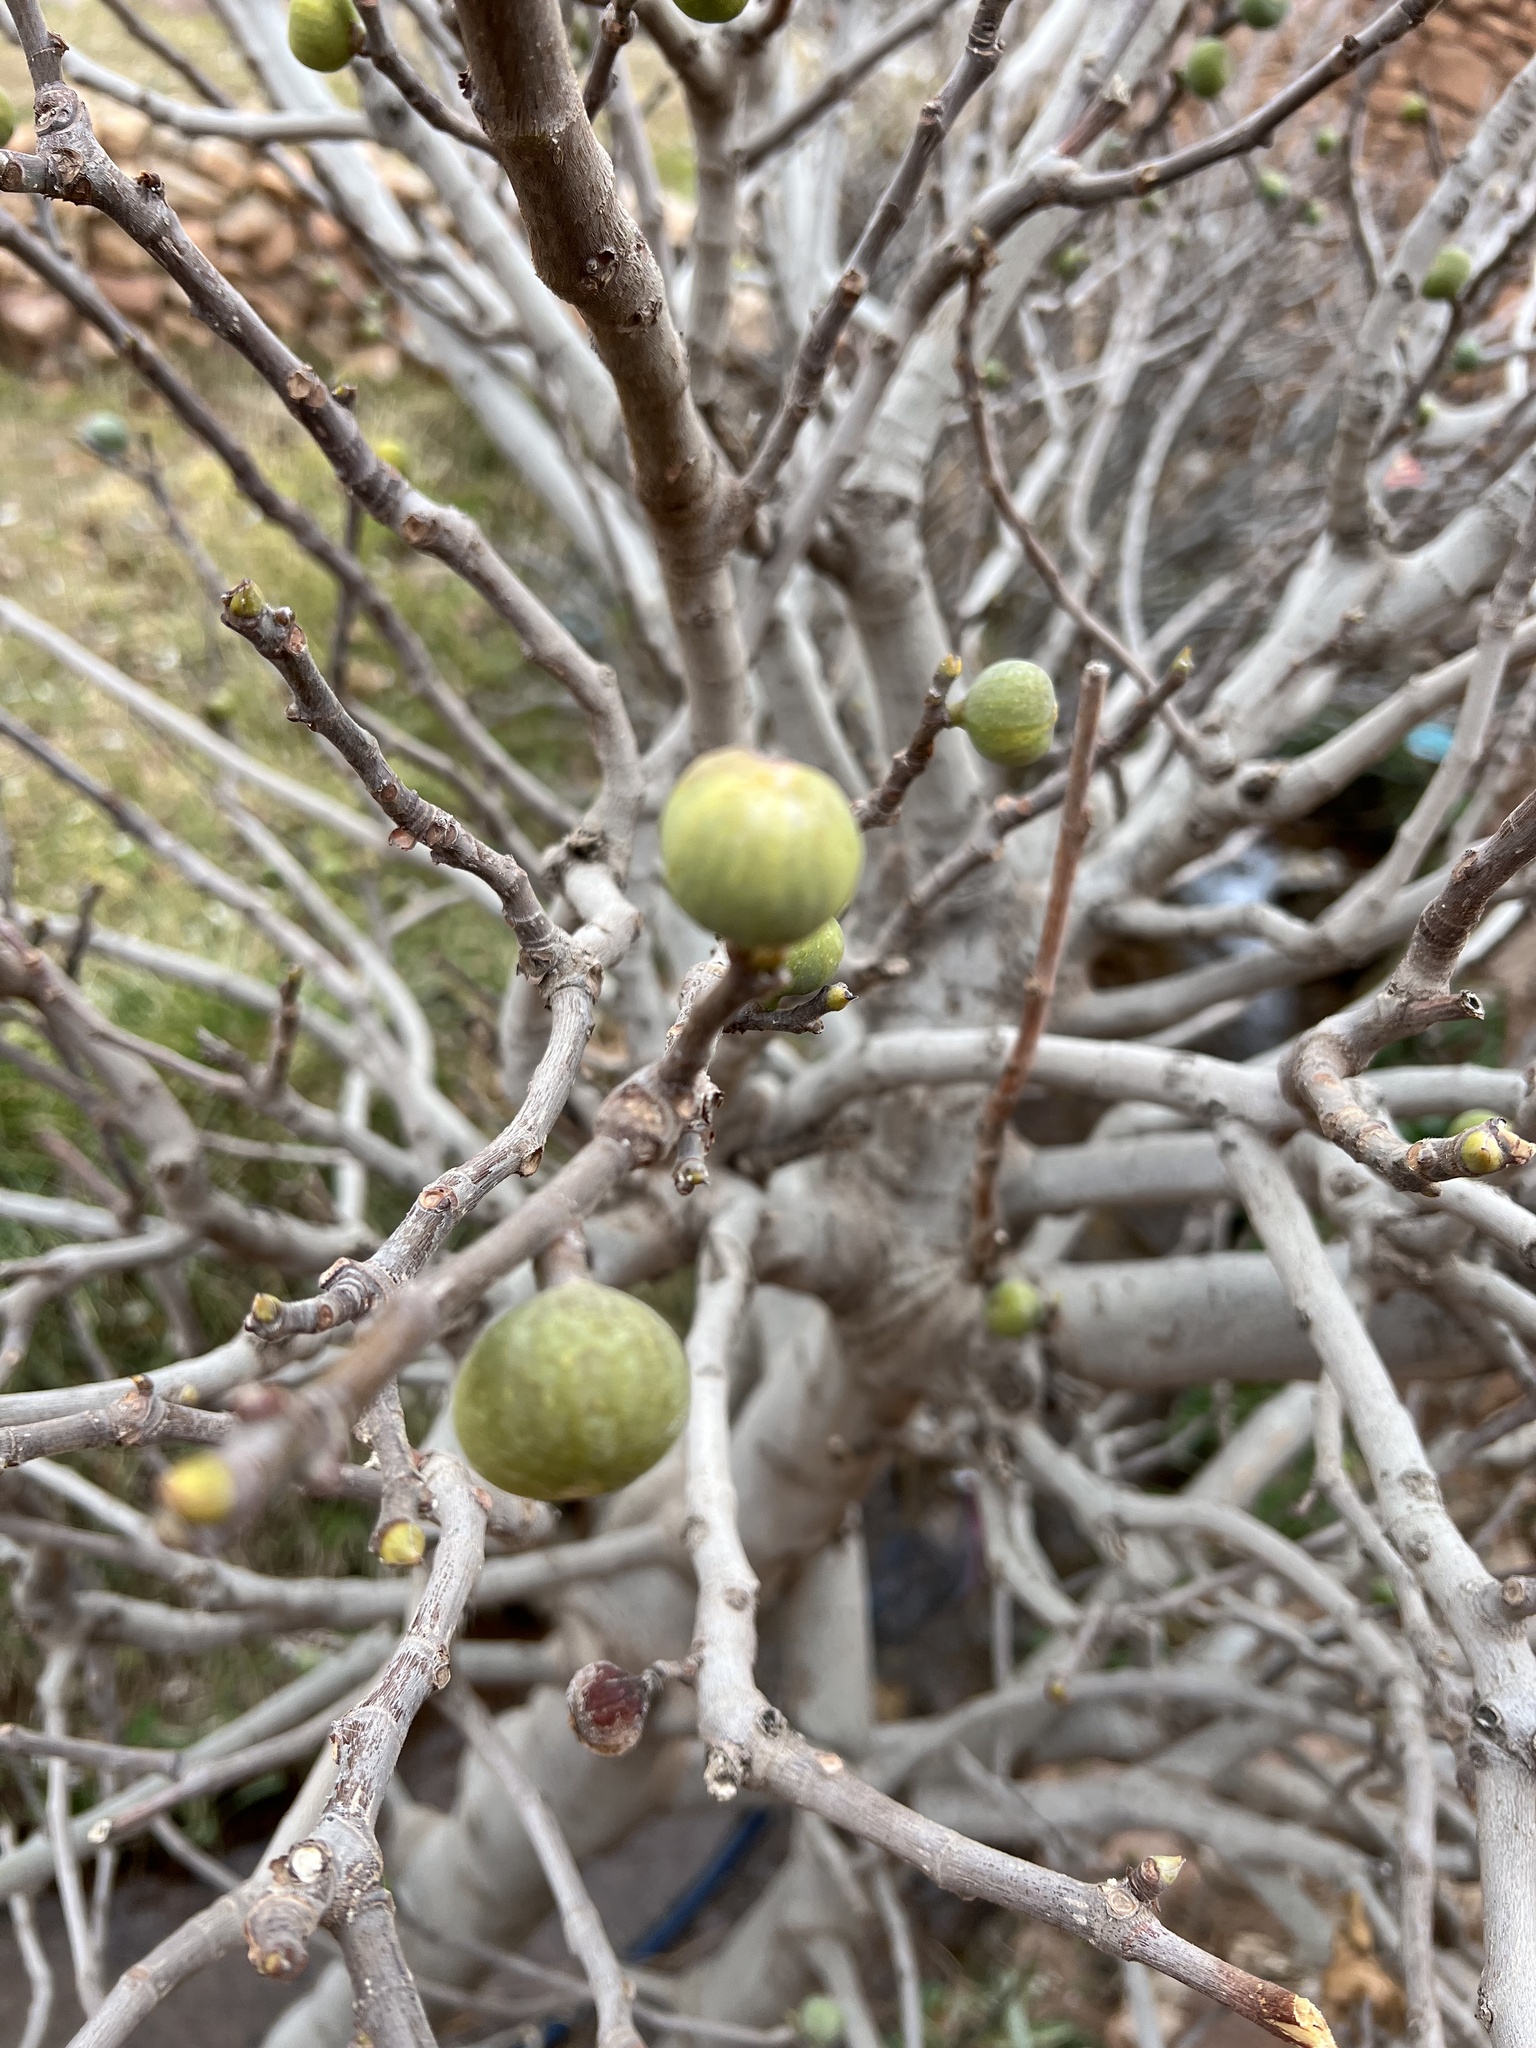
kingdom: Plantae
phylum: Tracheophyta
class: Magnoliopsida
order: Rosales
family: Moraceae
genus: Ficus
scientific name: Ficus carica
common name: Fig
